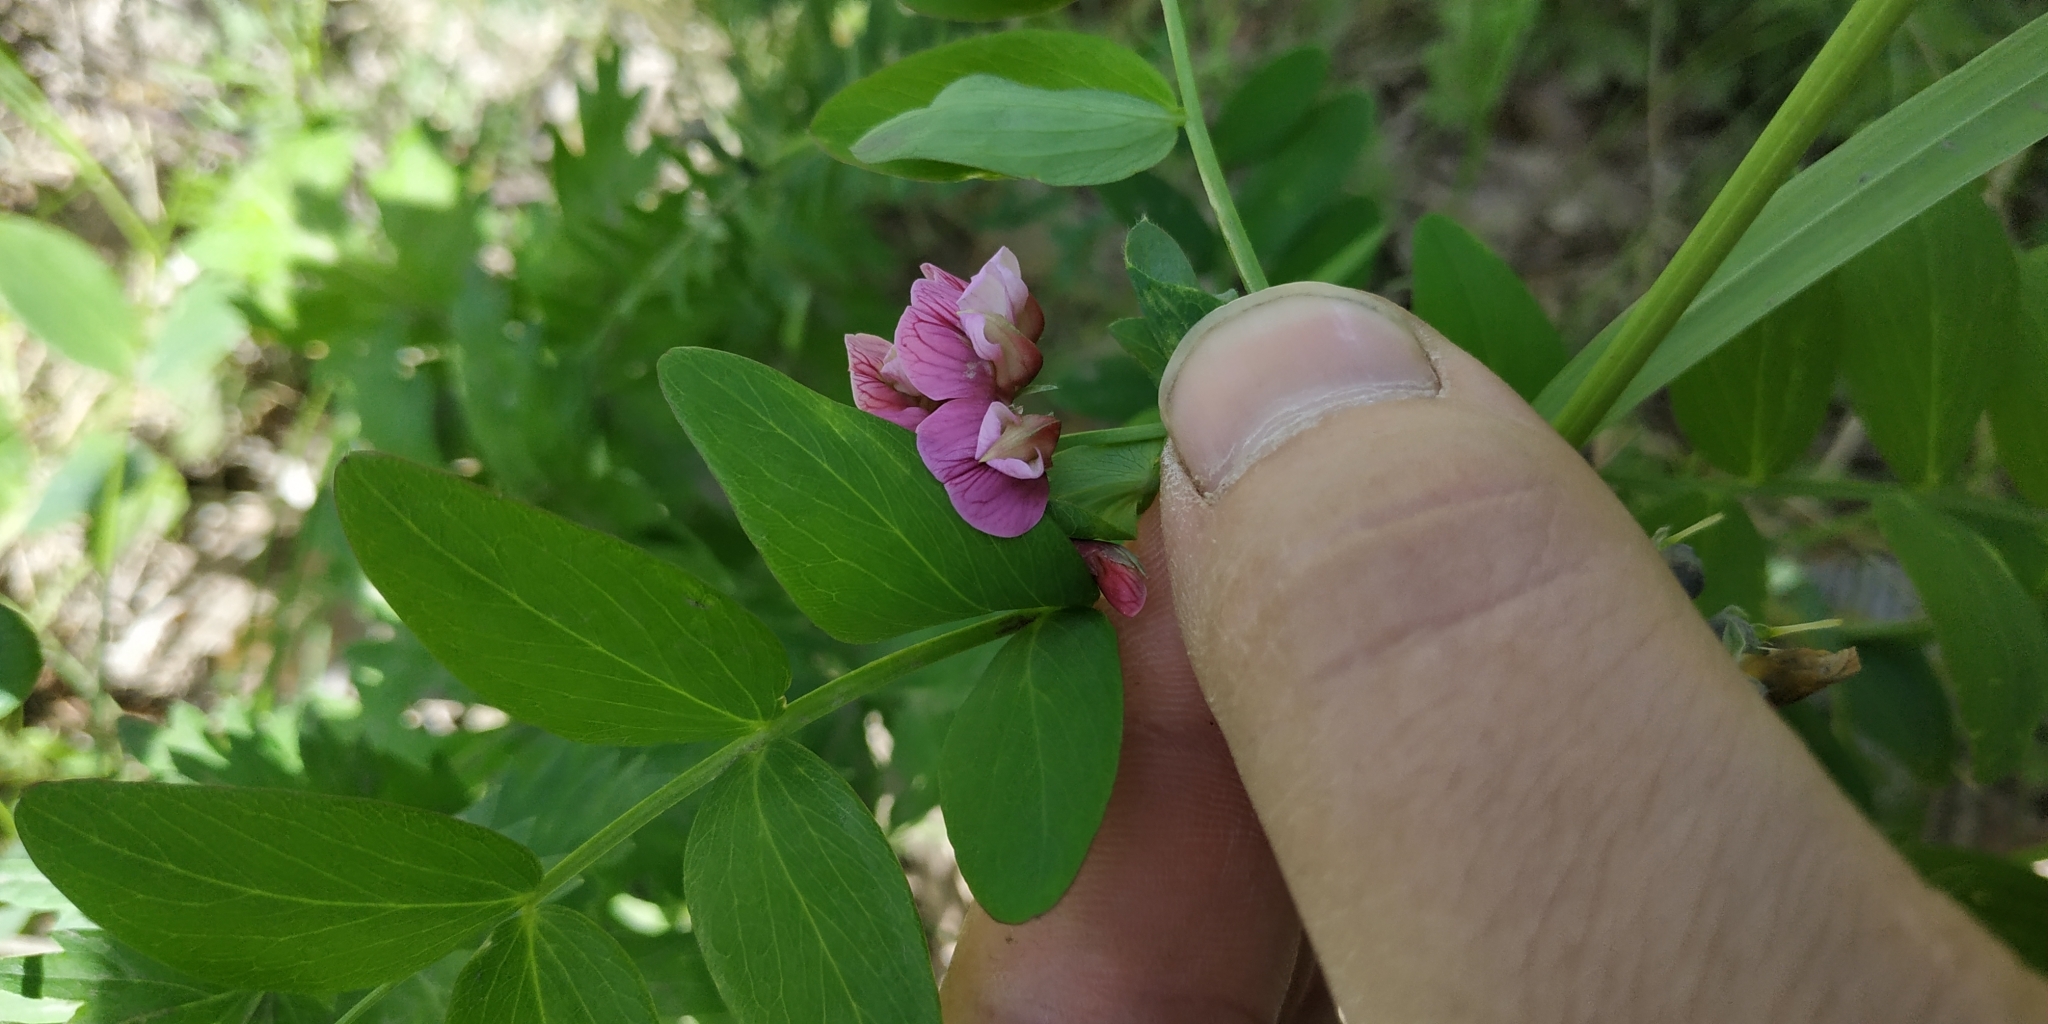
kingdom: Plantae
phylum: Tracheophyta
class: Magnoliopsida
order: Fabales
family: Fabaceae
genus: Lathyrus
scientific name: Lathyrus pisiformis
